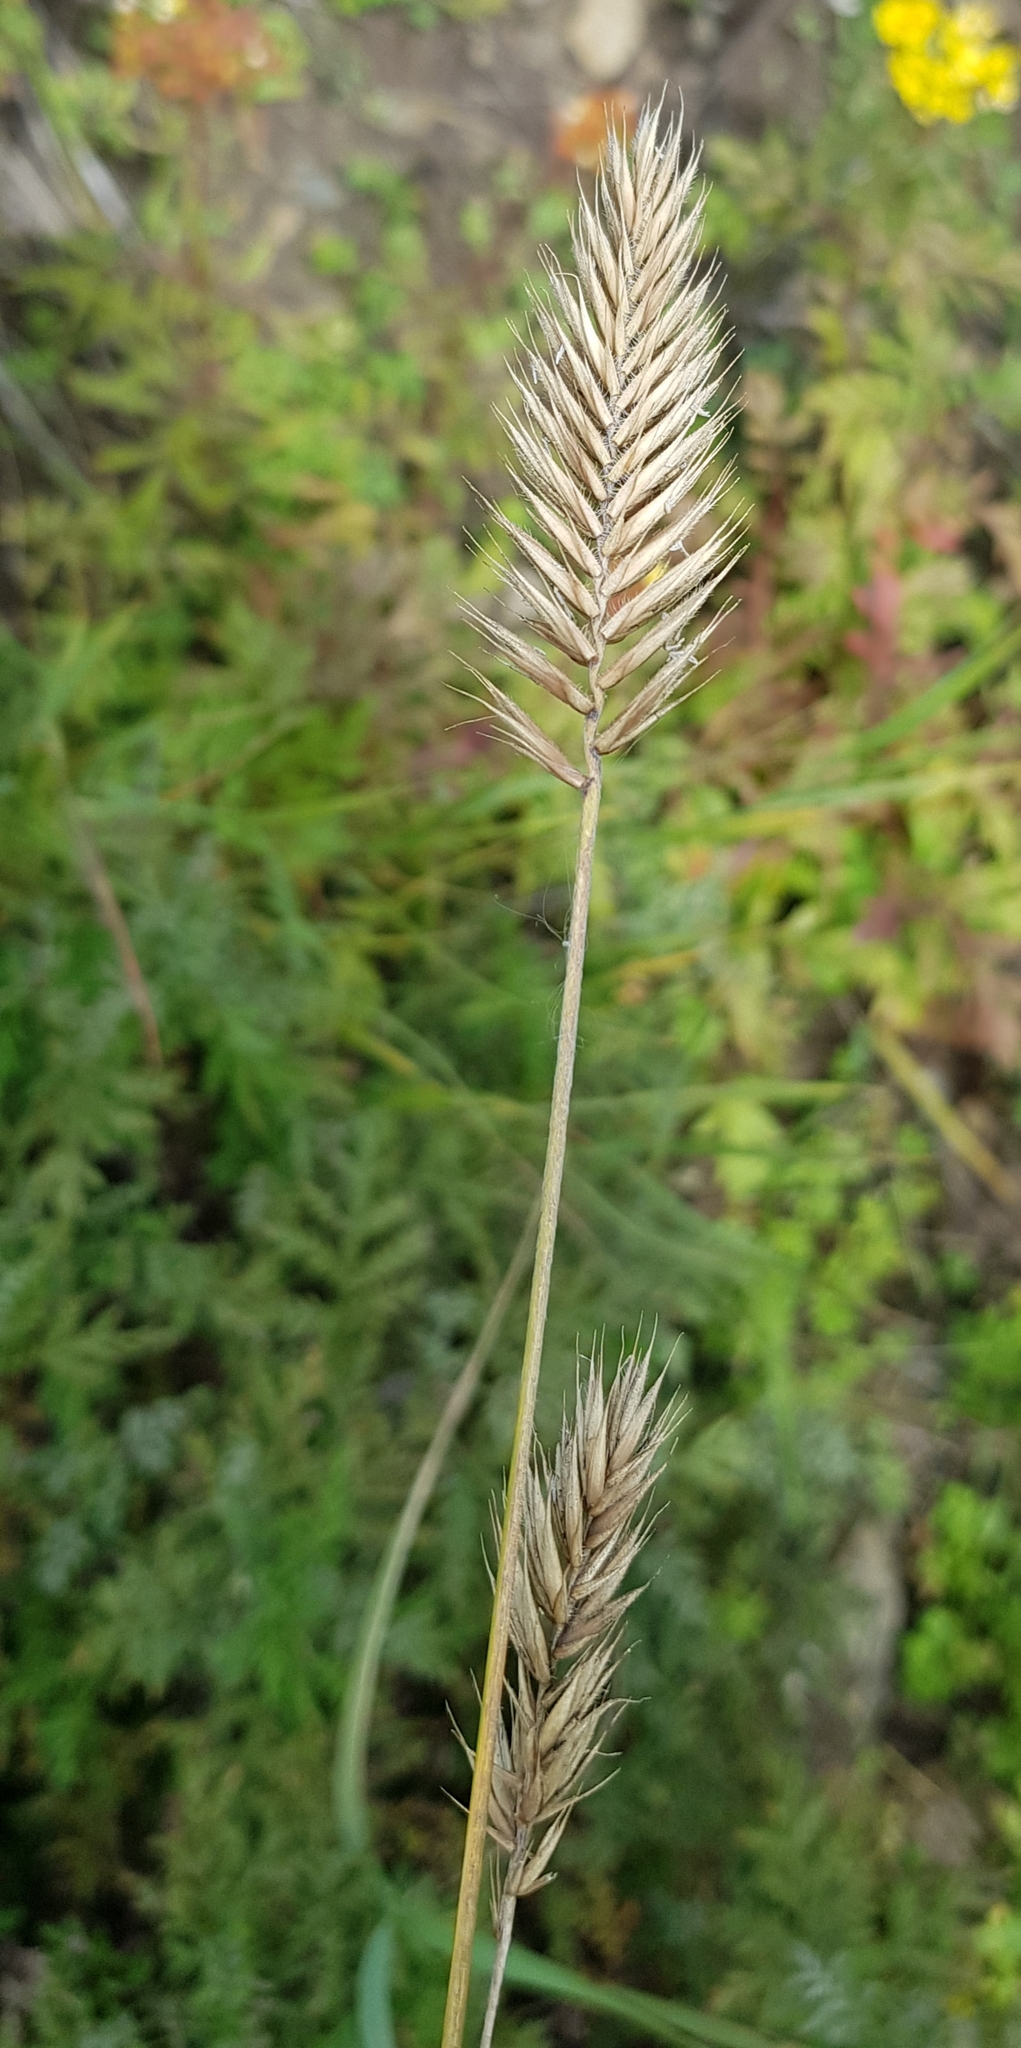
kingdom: Plantae
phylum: Tracheophyta
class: Liliopsida
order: Poales
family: Poaceae
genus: Agropyron
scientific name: Agropyron cristatum
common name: Crested wheatgrass
